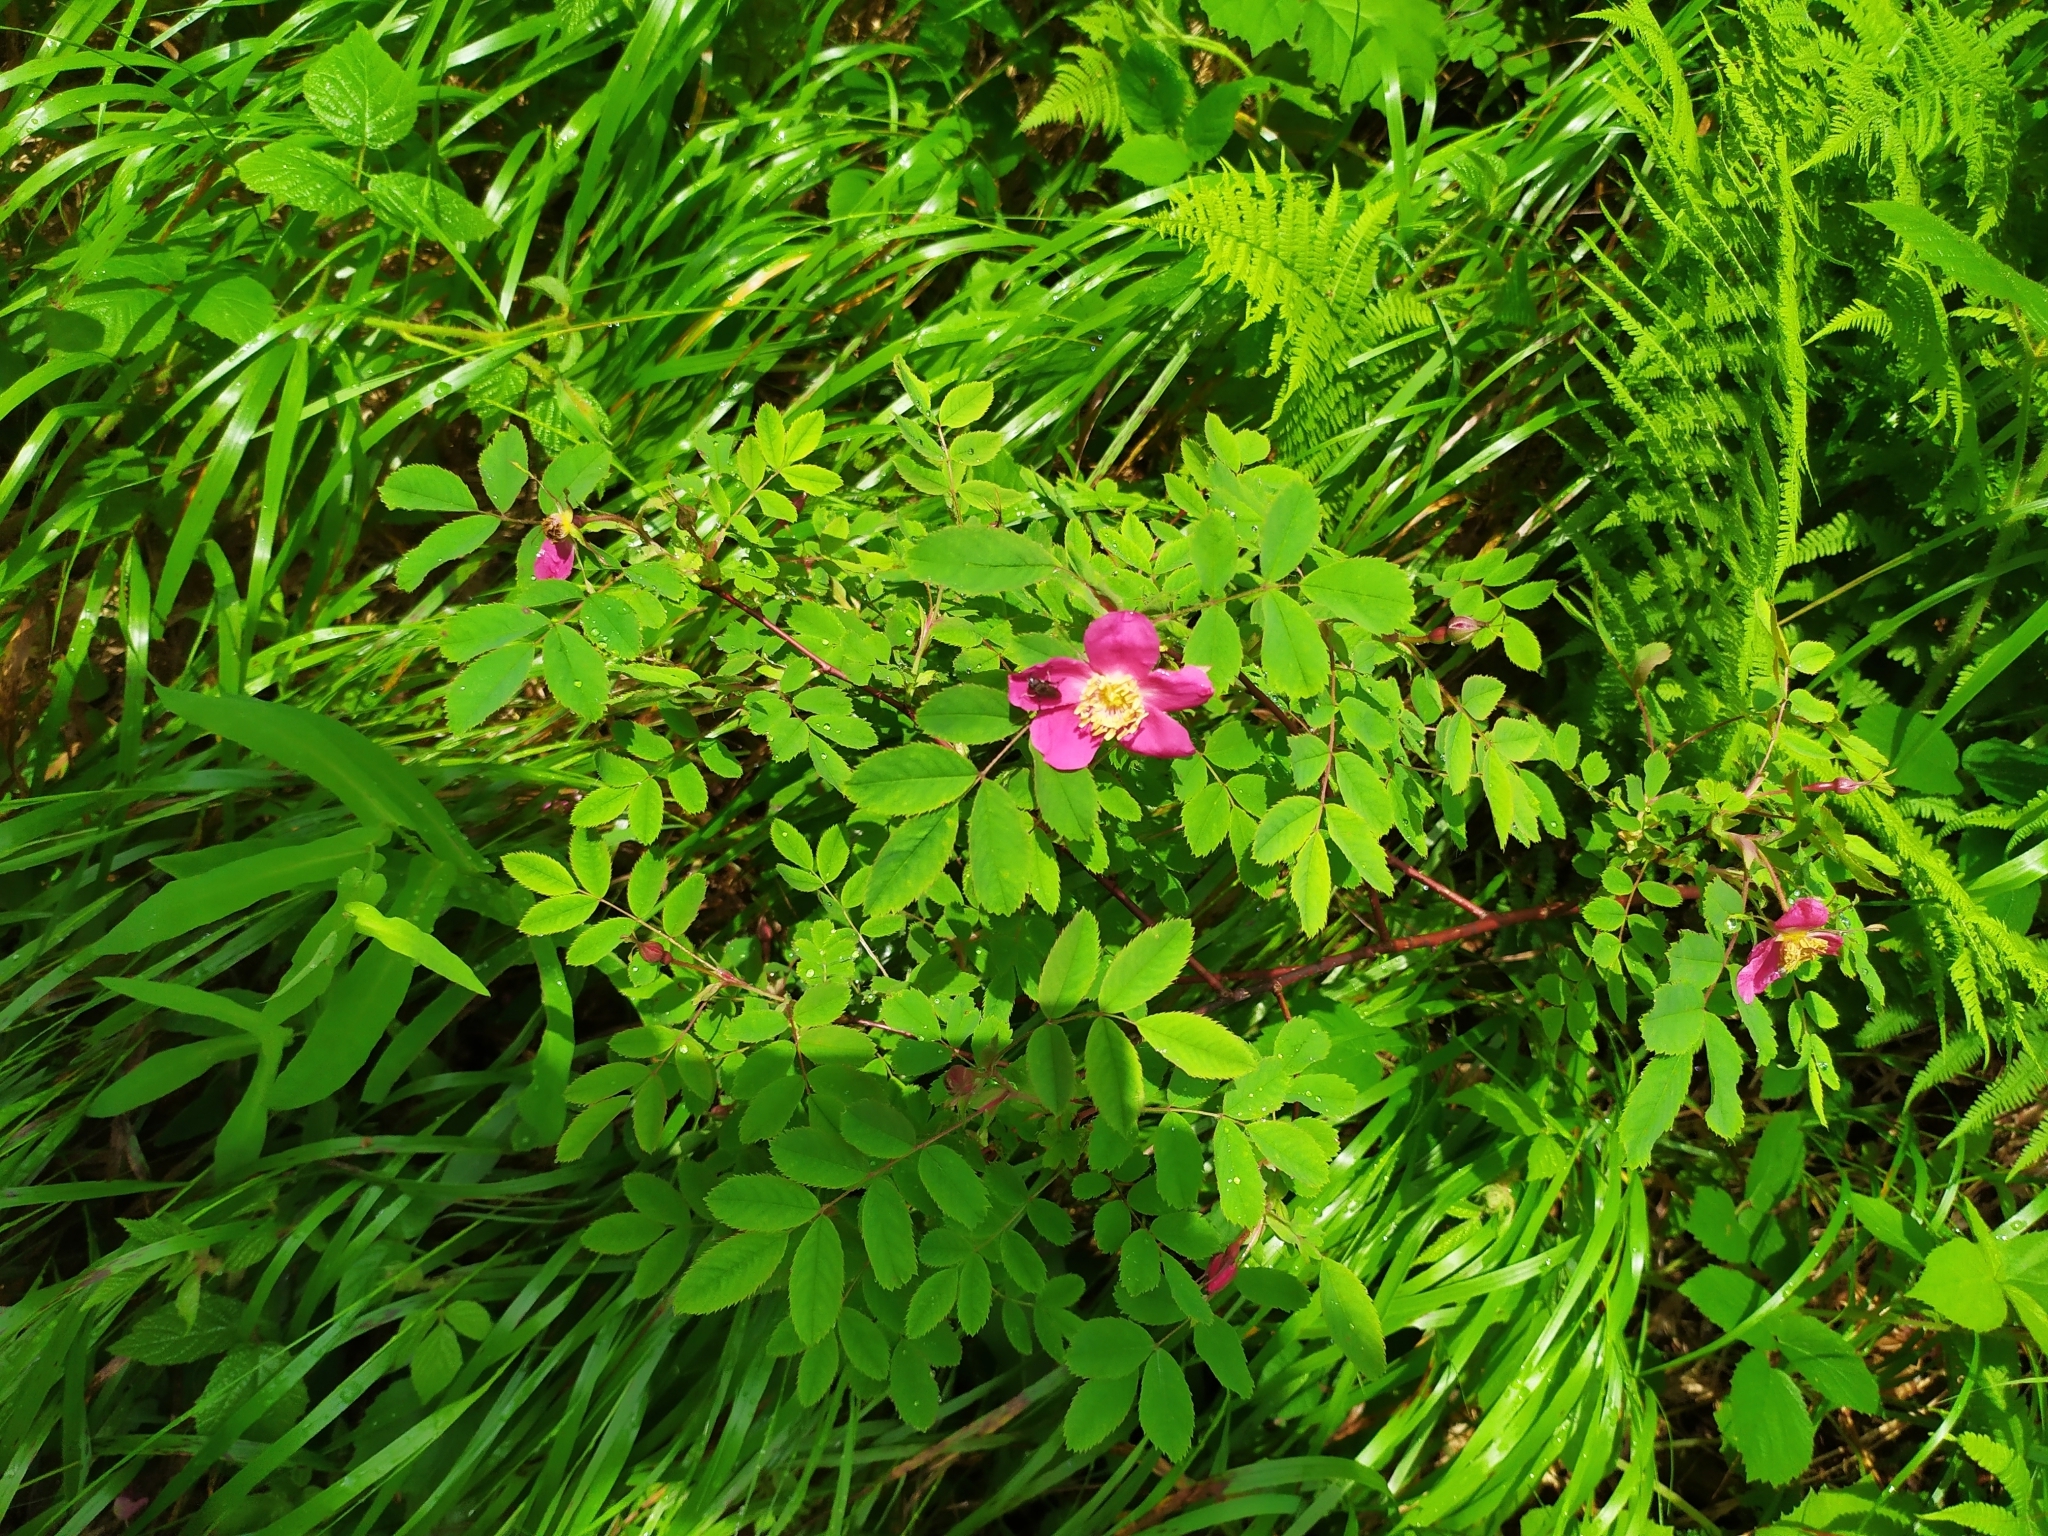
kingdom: Plantae
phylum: Tracheophyta
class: Magnoliopsida
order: Rosales
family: Rosaceae
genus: Rosa
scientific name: Rosa pendulina
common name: Alpine rose
